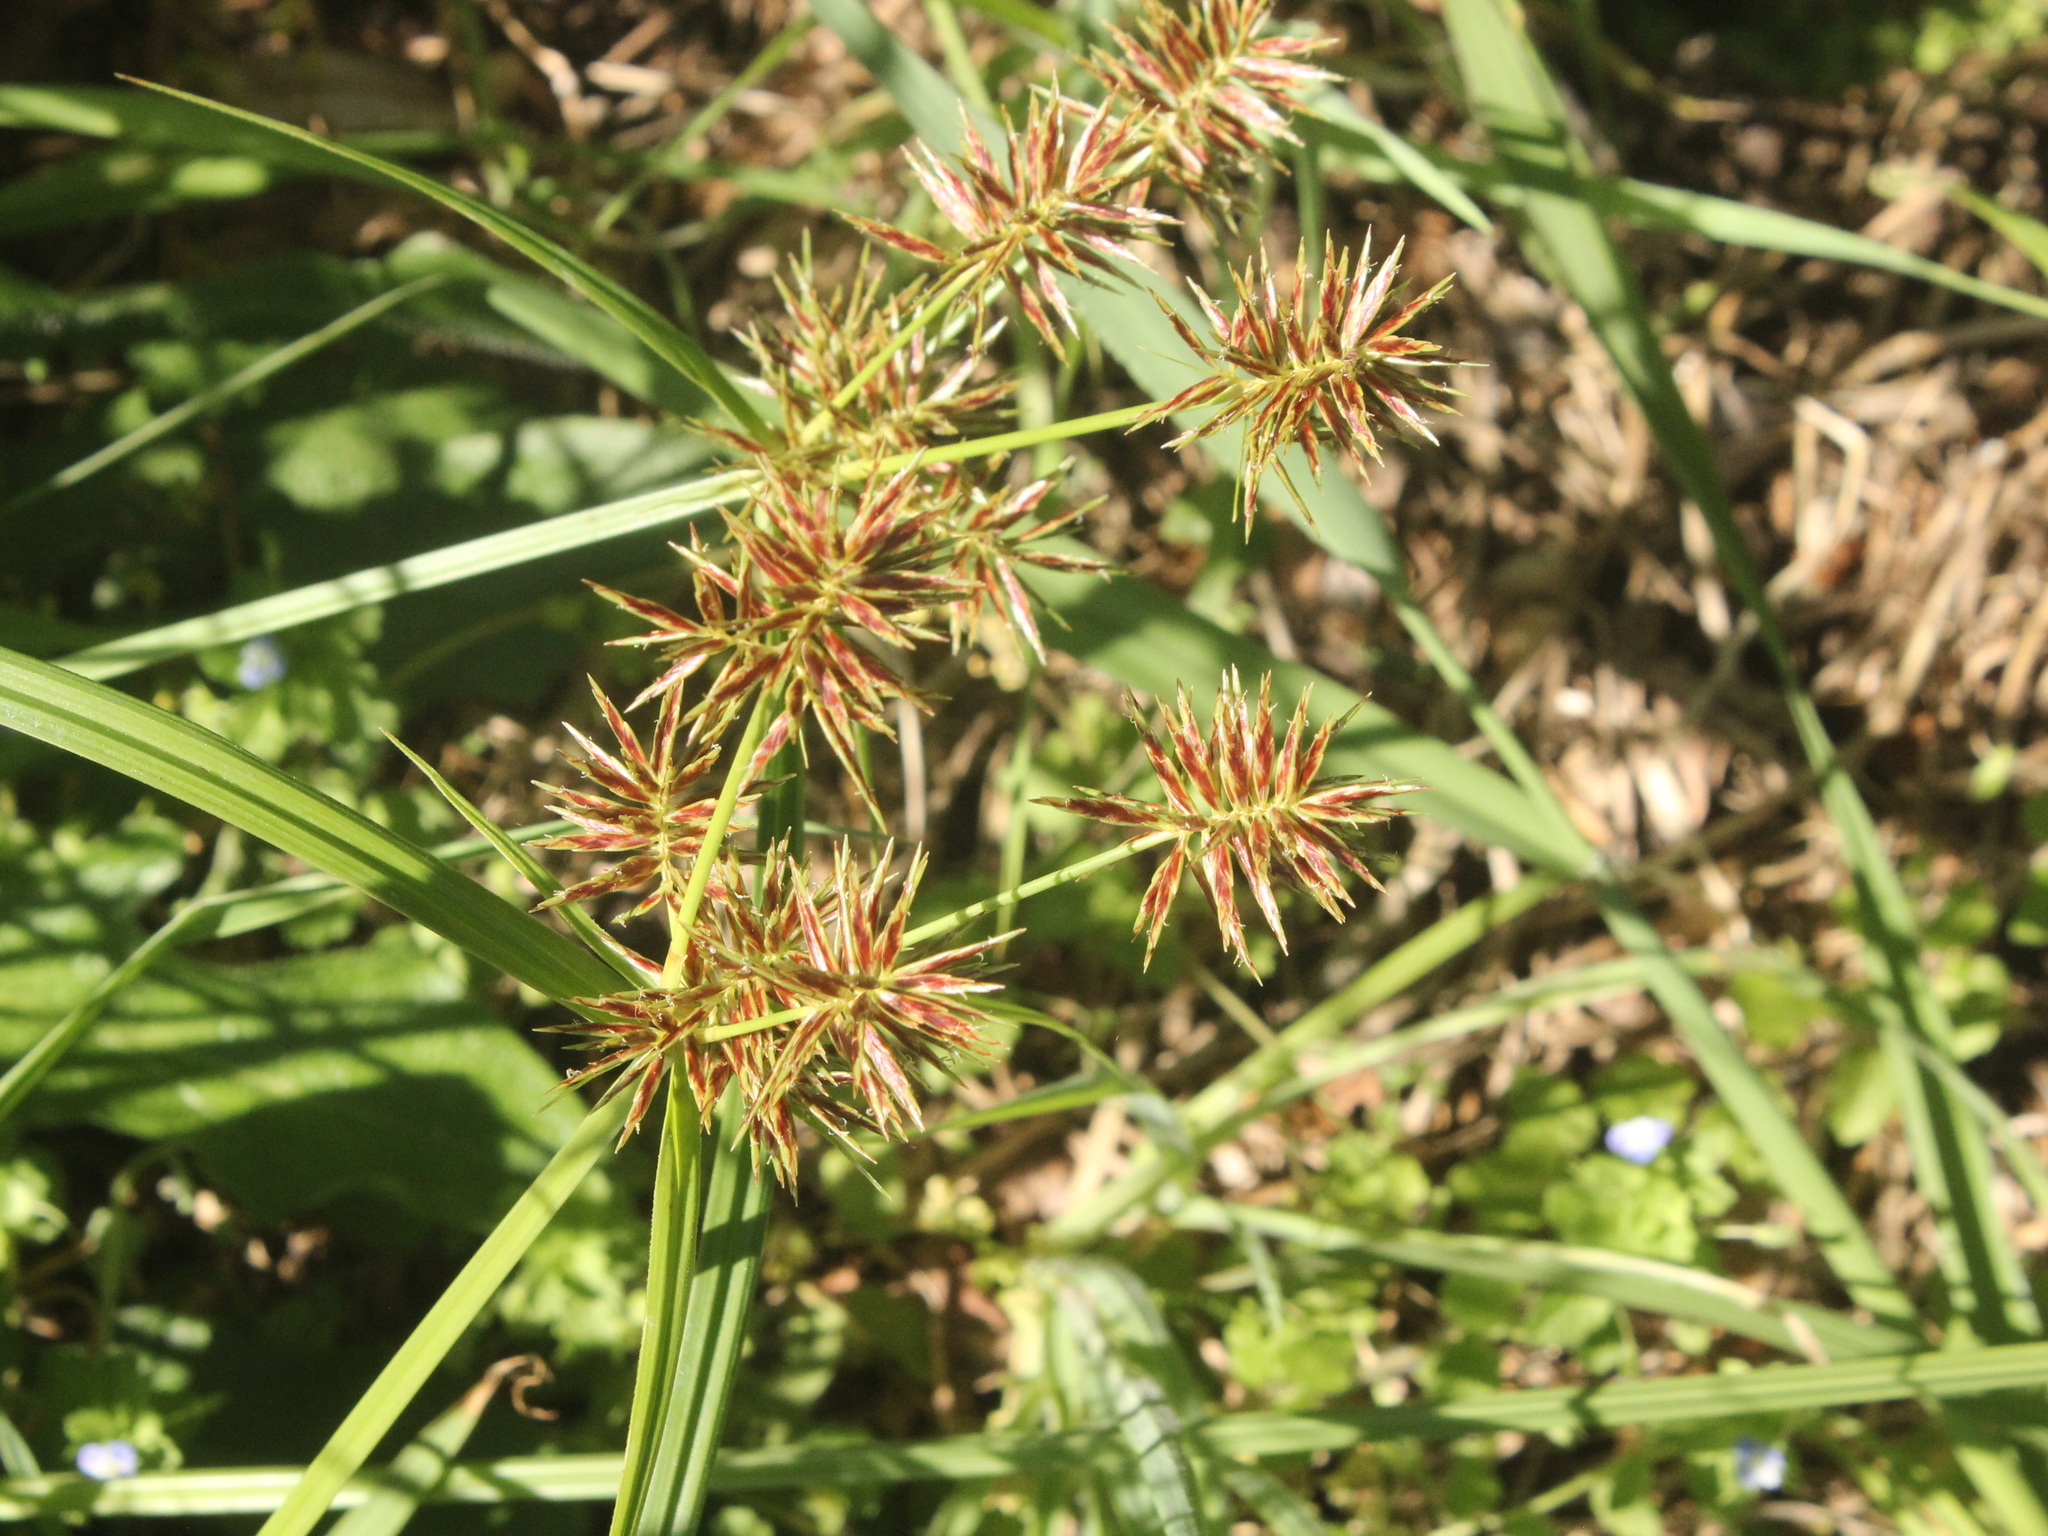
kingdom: Plantae
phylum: Tracheophyta
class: Liliopsida
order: Poales
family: Cyperaceae
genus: Cyperus
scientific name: Cyperus congestus
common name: Dense flat sedge
